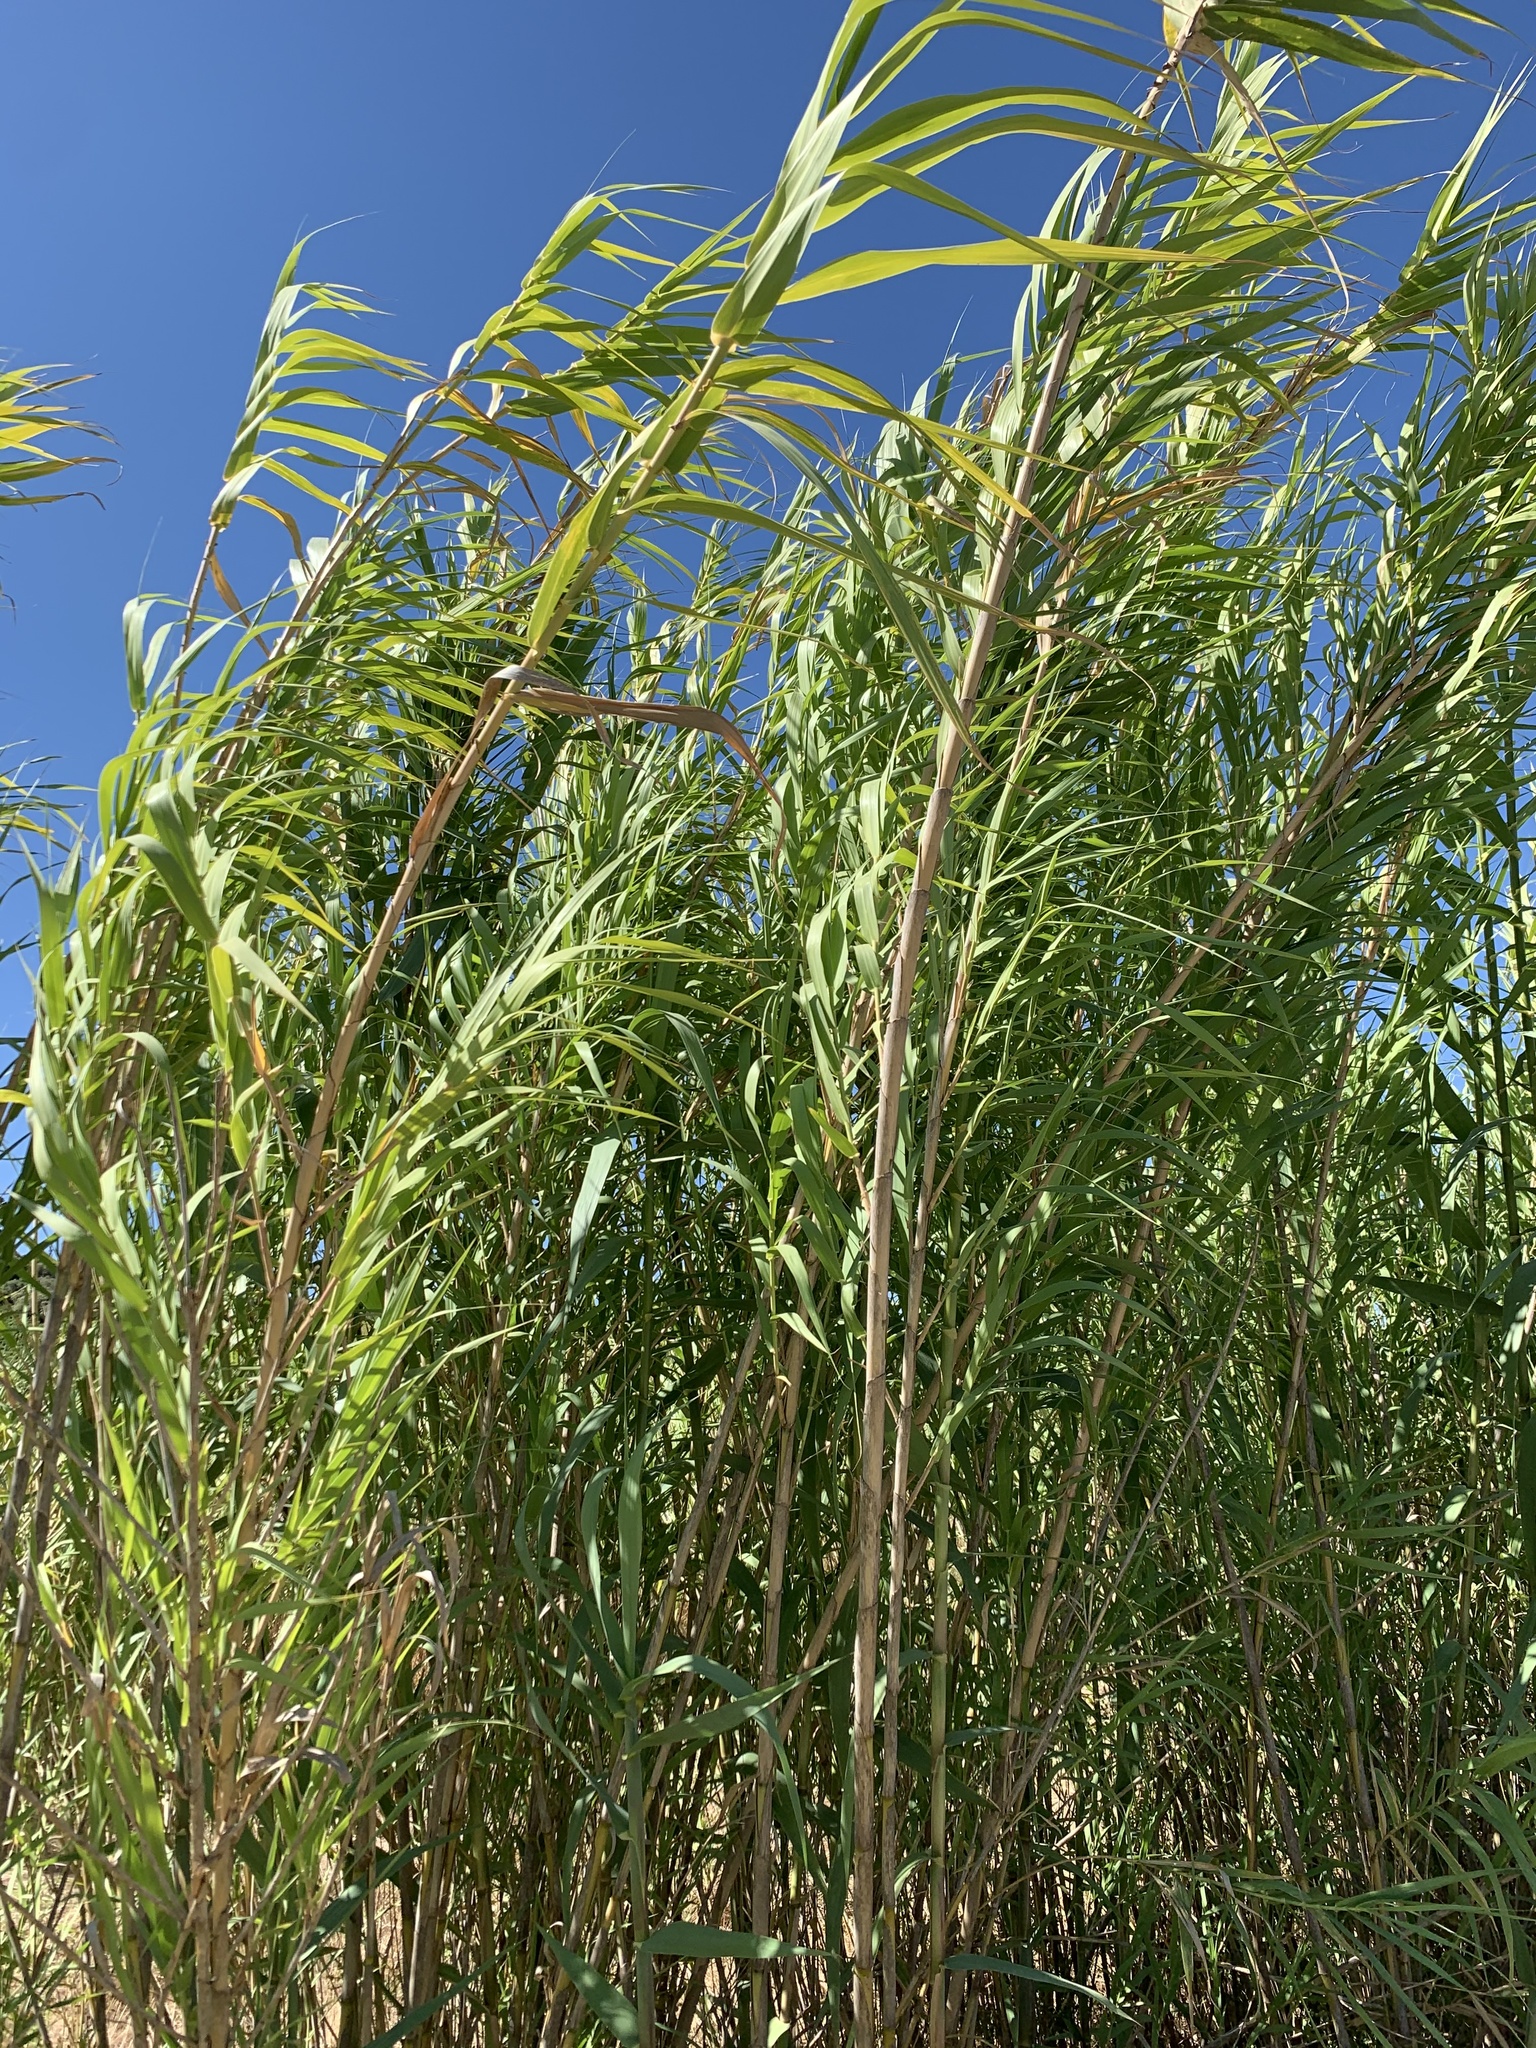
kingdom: Plantae
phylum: Tracheophyta
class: Liliopsida
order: Poales
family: Poaceae
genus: Arundo
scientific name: Arundo donax
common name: Giant reed
